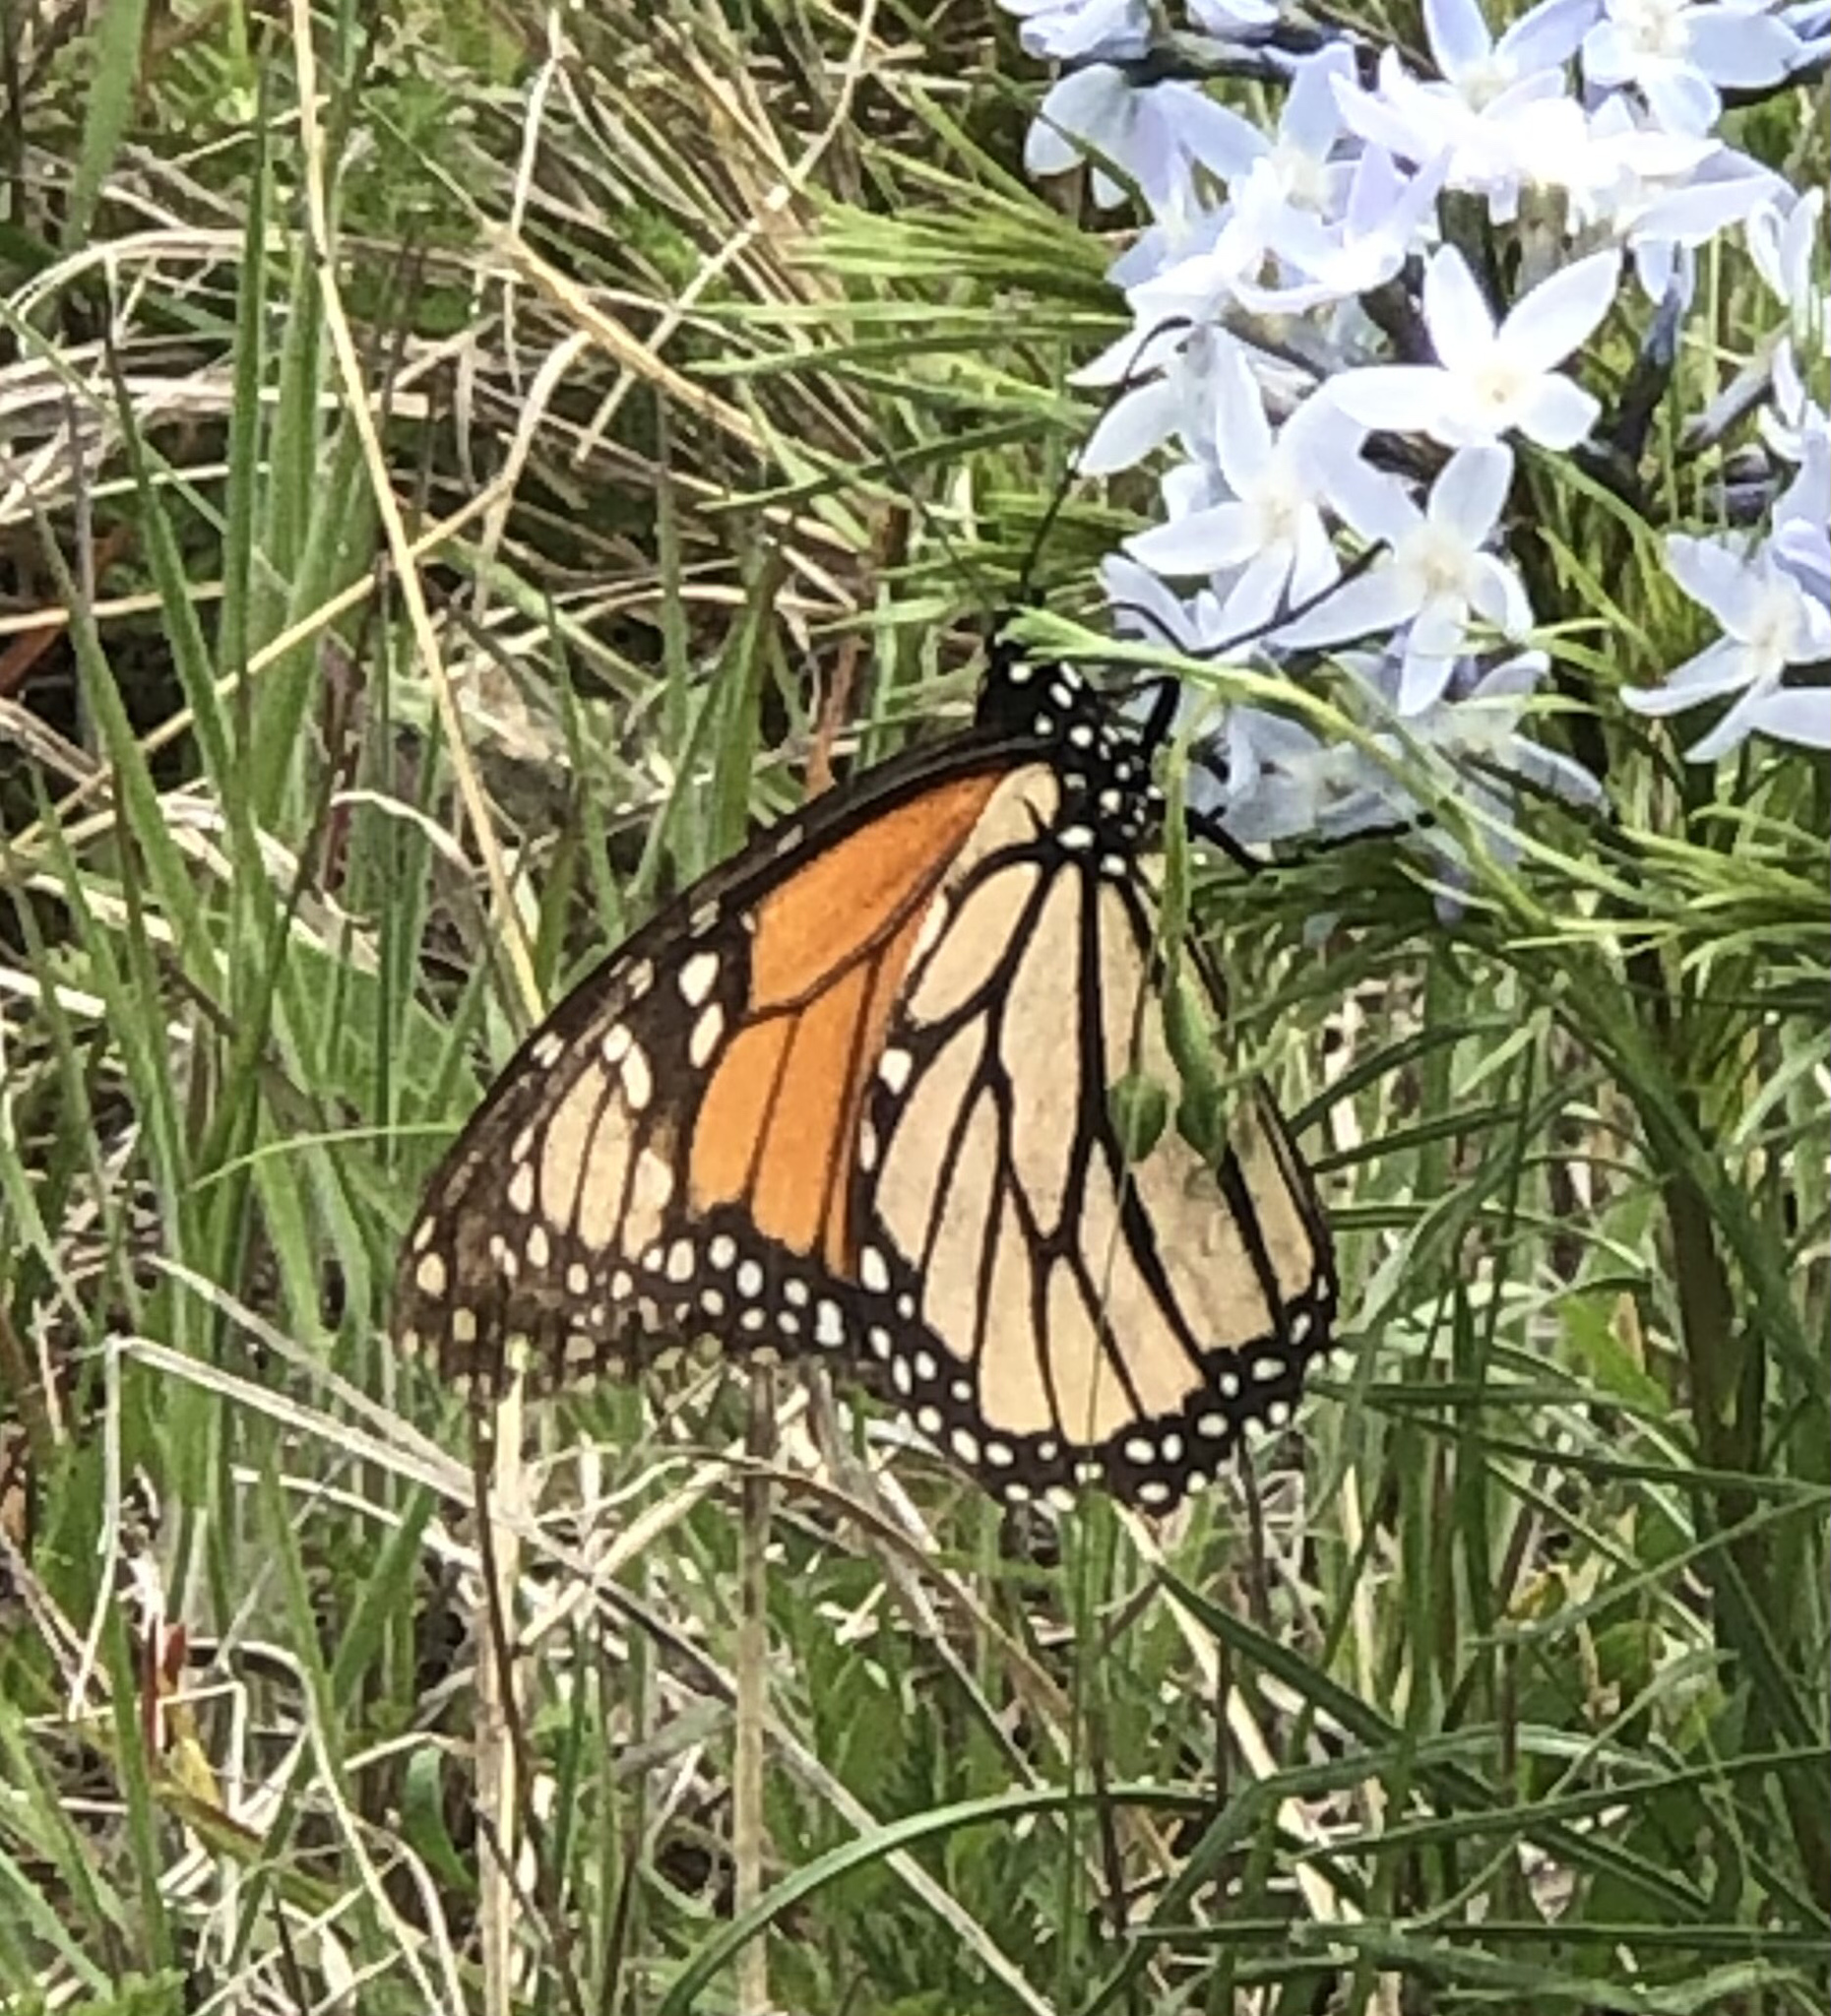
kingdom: Animalia
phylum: Arthropoda
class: Insecta
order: Lepidoptera
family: Nymphalidae
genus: Danaus
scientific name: Danaus plexippus
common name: Monarch
